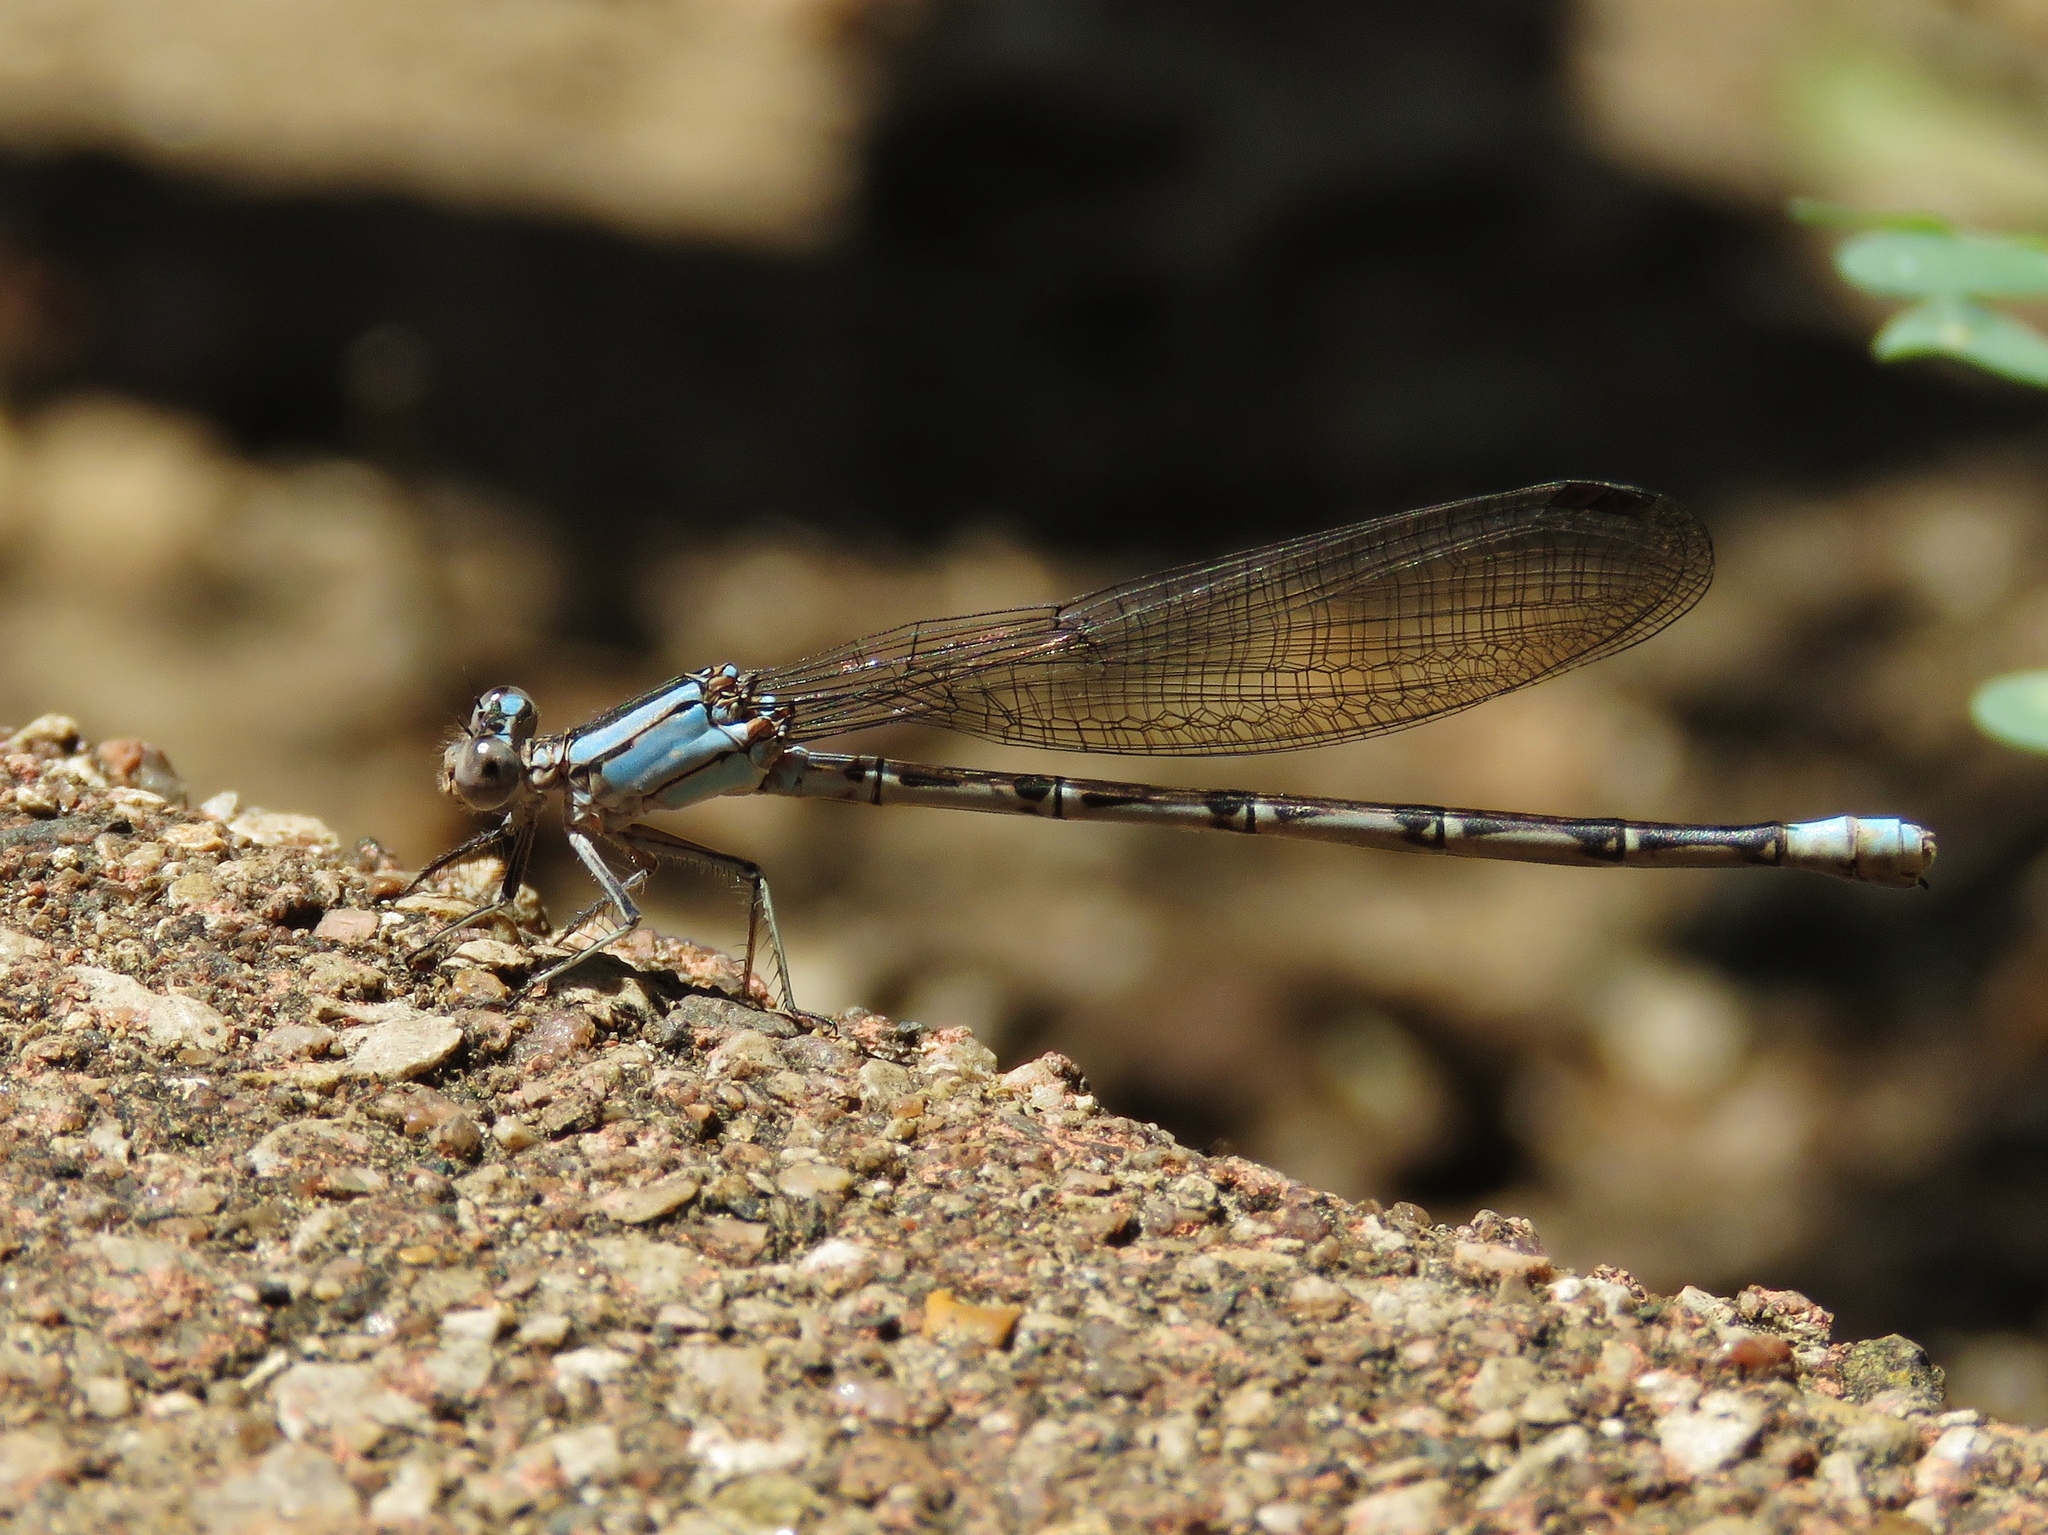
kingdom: Animalia
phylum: Arthropoda
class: Insecta
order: Odonata
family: Coenagrionidae
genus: Argia
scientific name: Argia funebris
